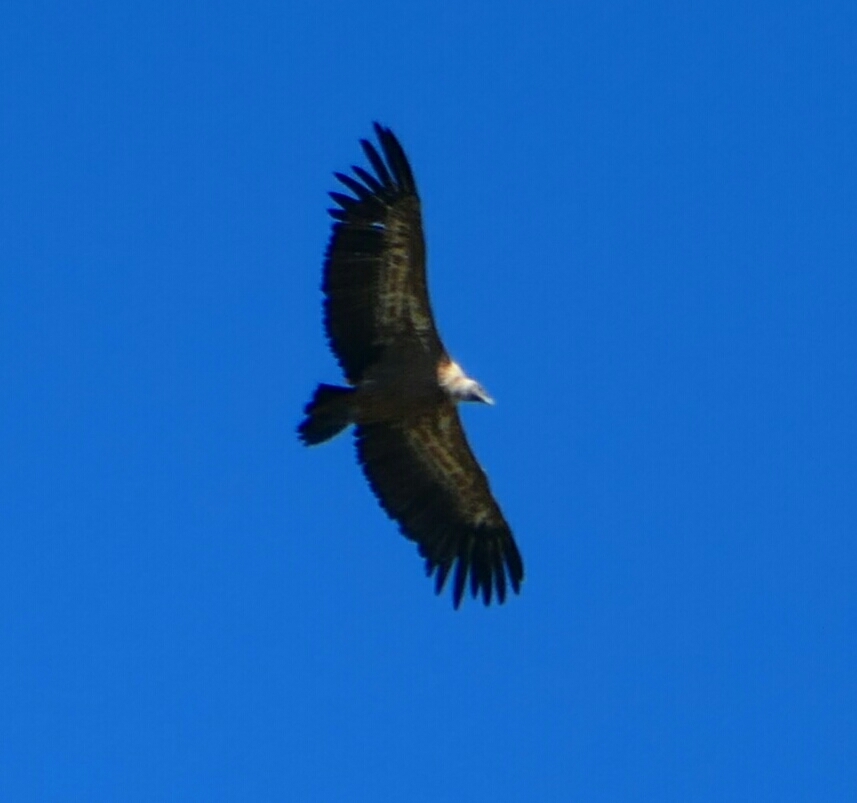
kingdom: Animalia
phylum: Chordata
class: Aves
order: Accipitriformes
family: Accipitridae
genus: Gyps
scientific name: Gyps fulvus
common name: Griffon vulture
